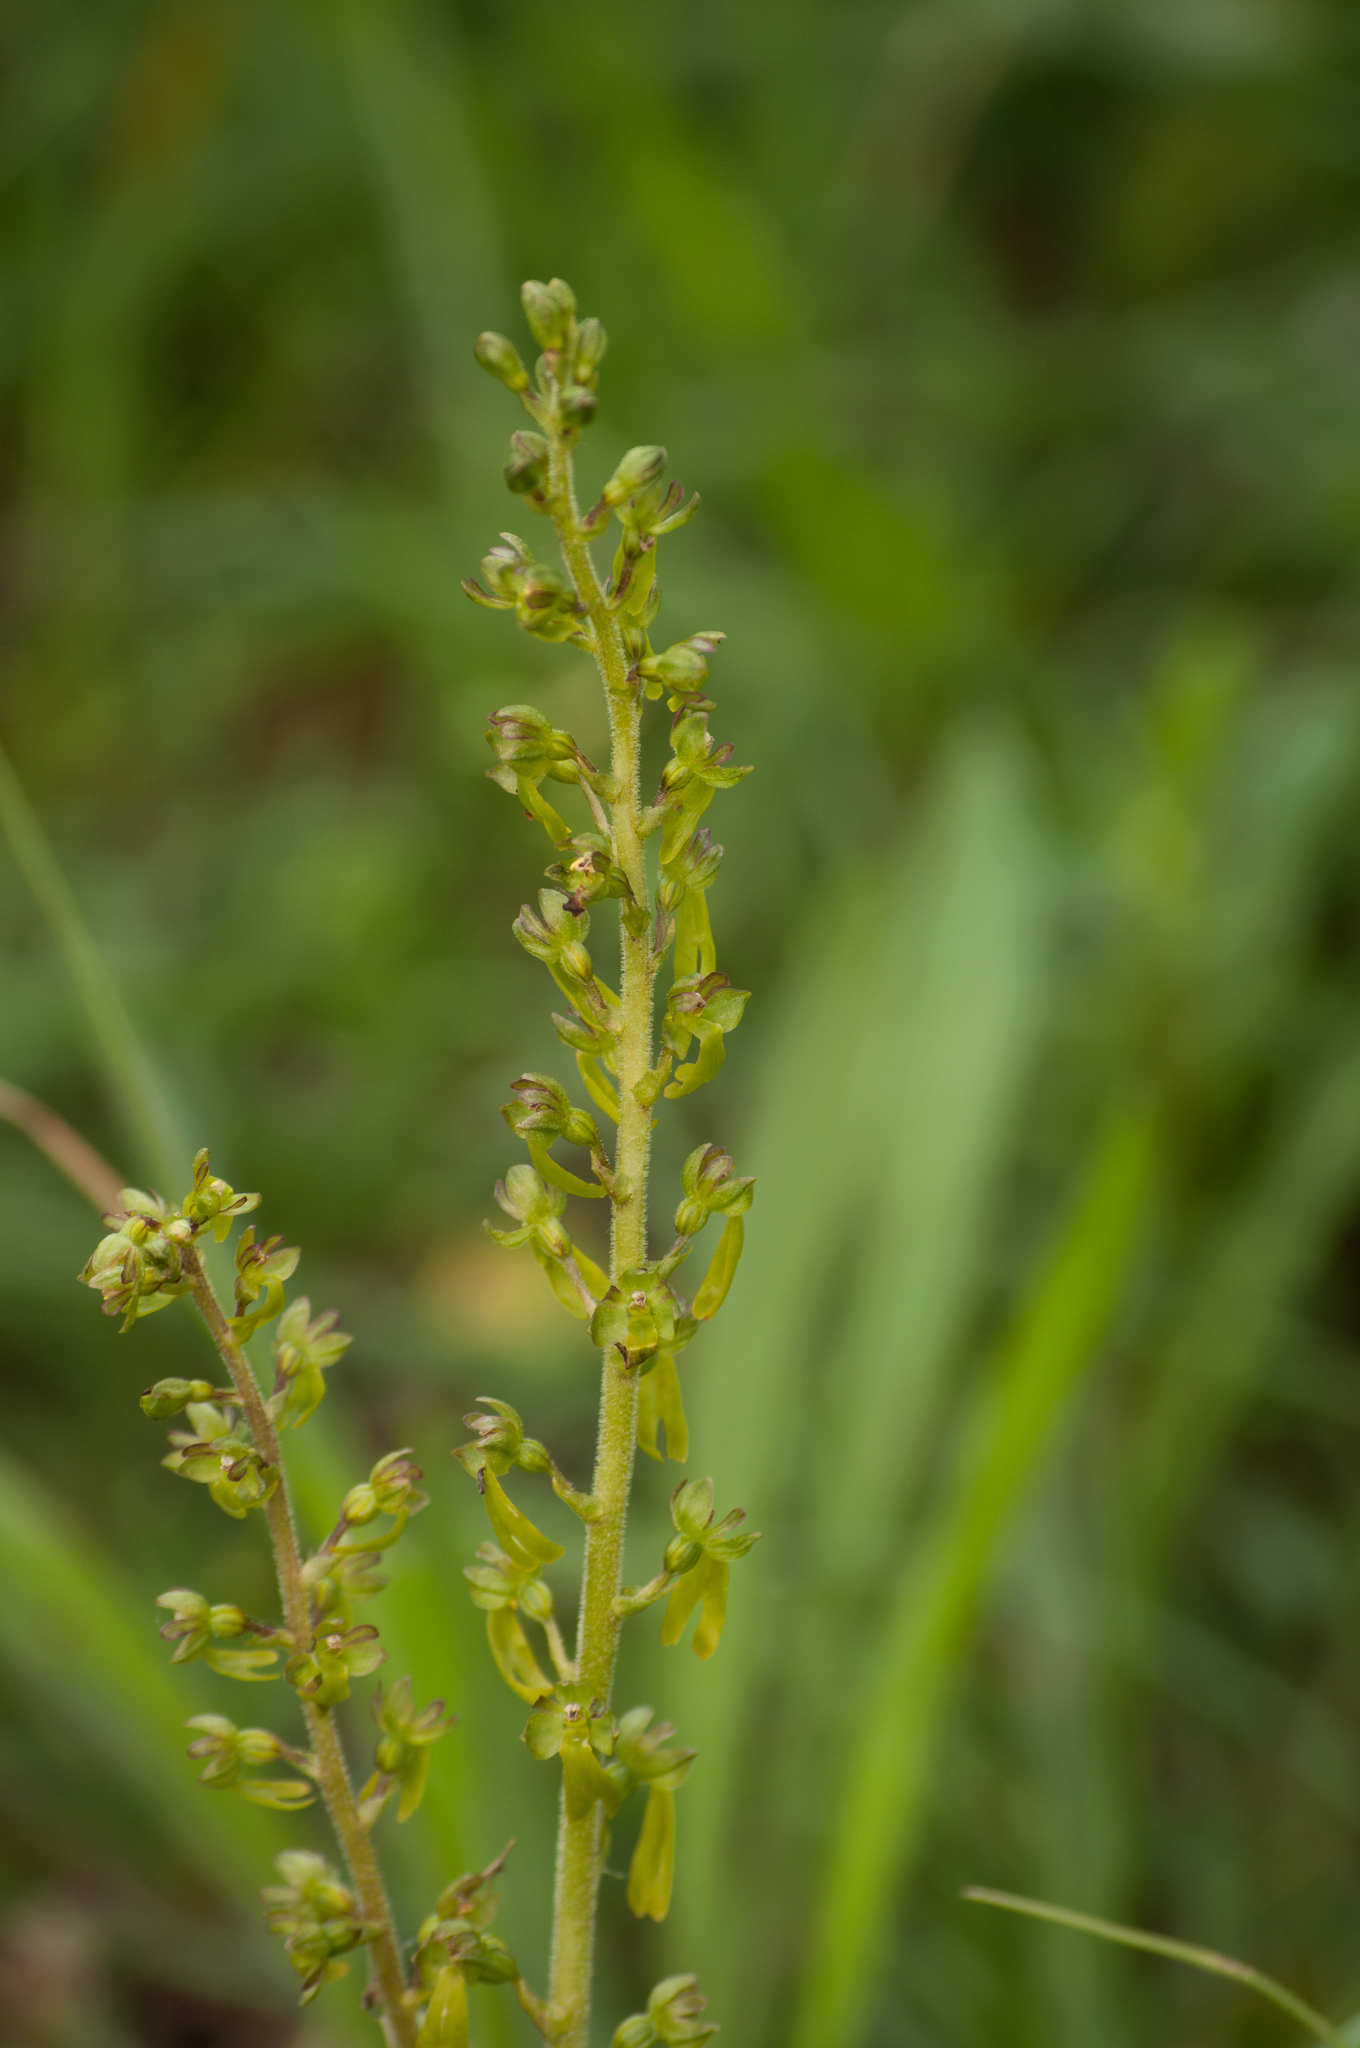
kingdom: Plantae
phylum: Tracheophyta
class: Liliopsida
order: Asparagales
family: Orchidaceae
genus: Neottia
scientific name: Neottia ovata
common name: Common twayblade
